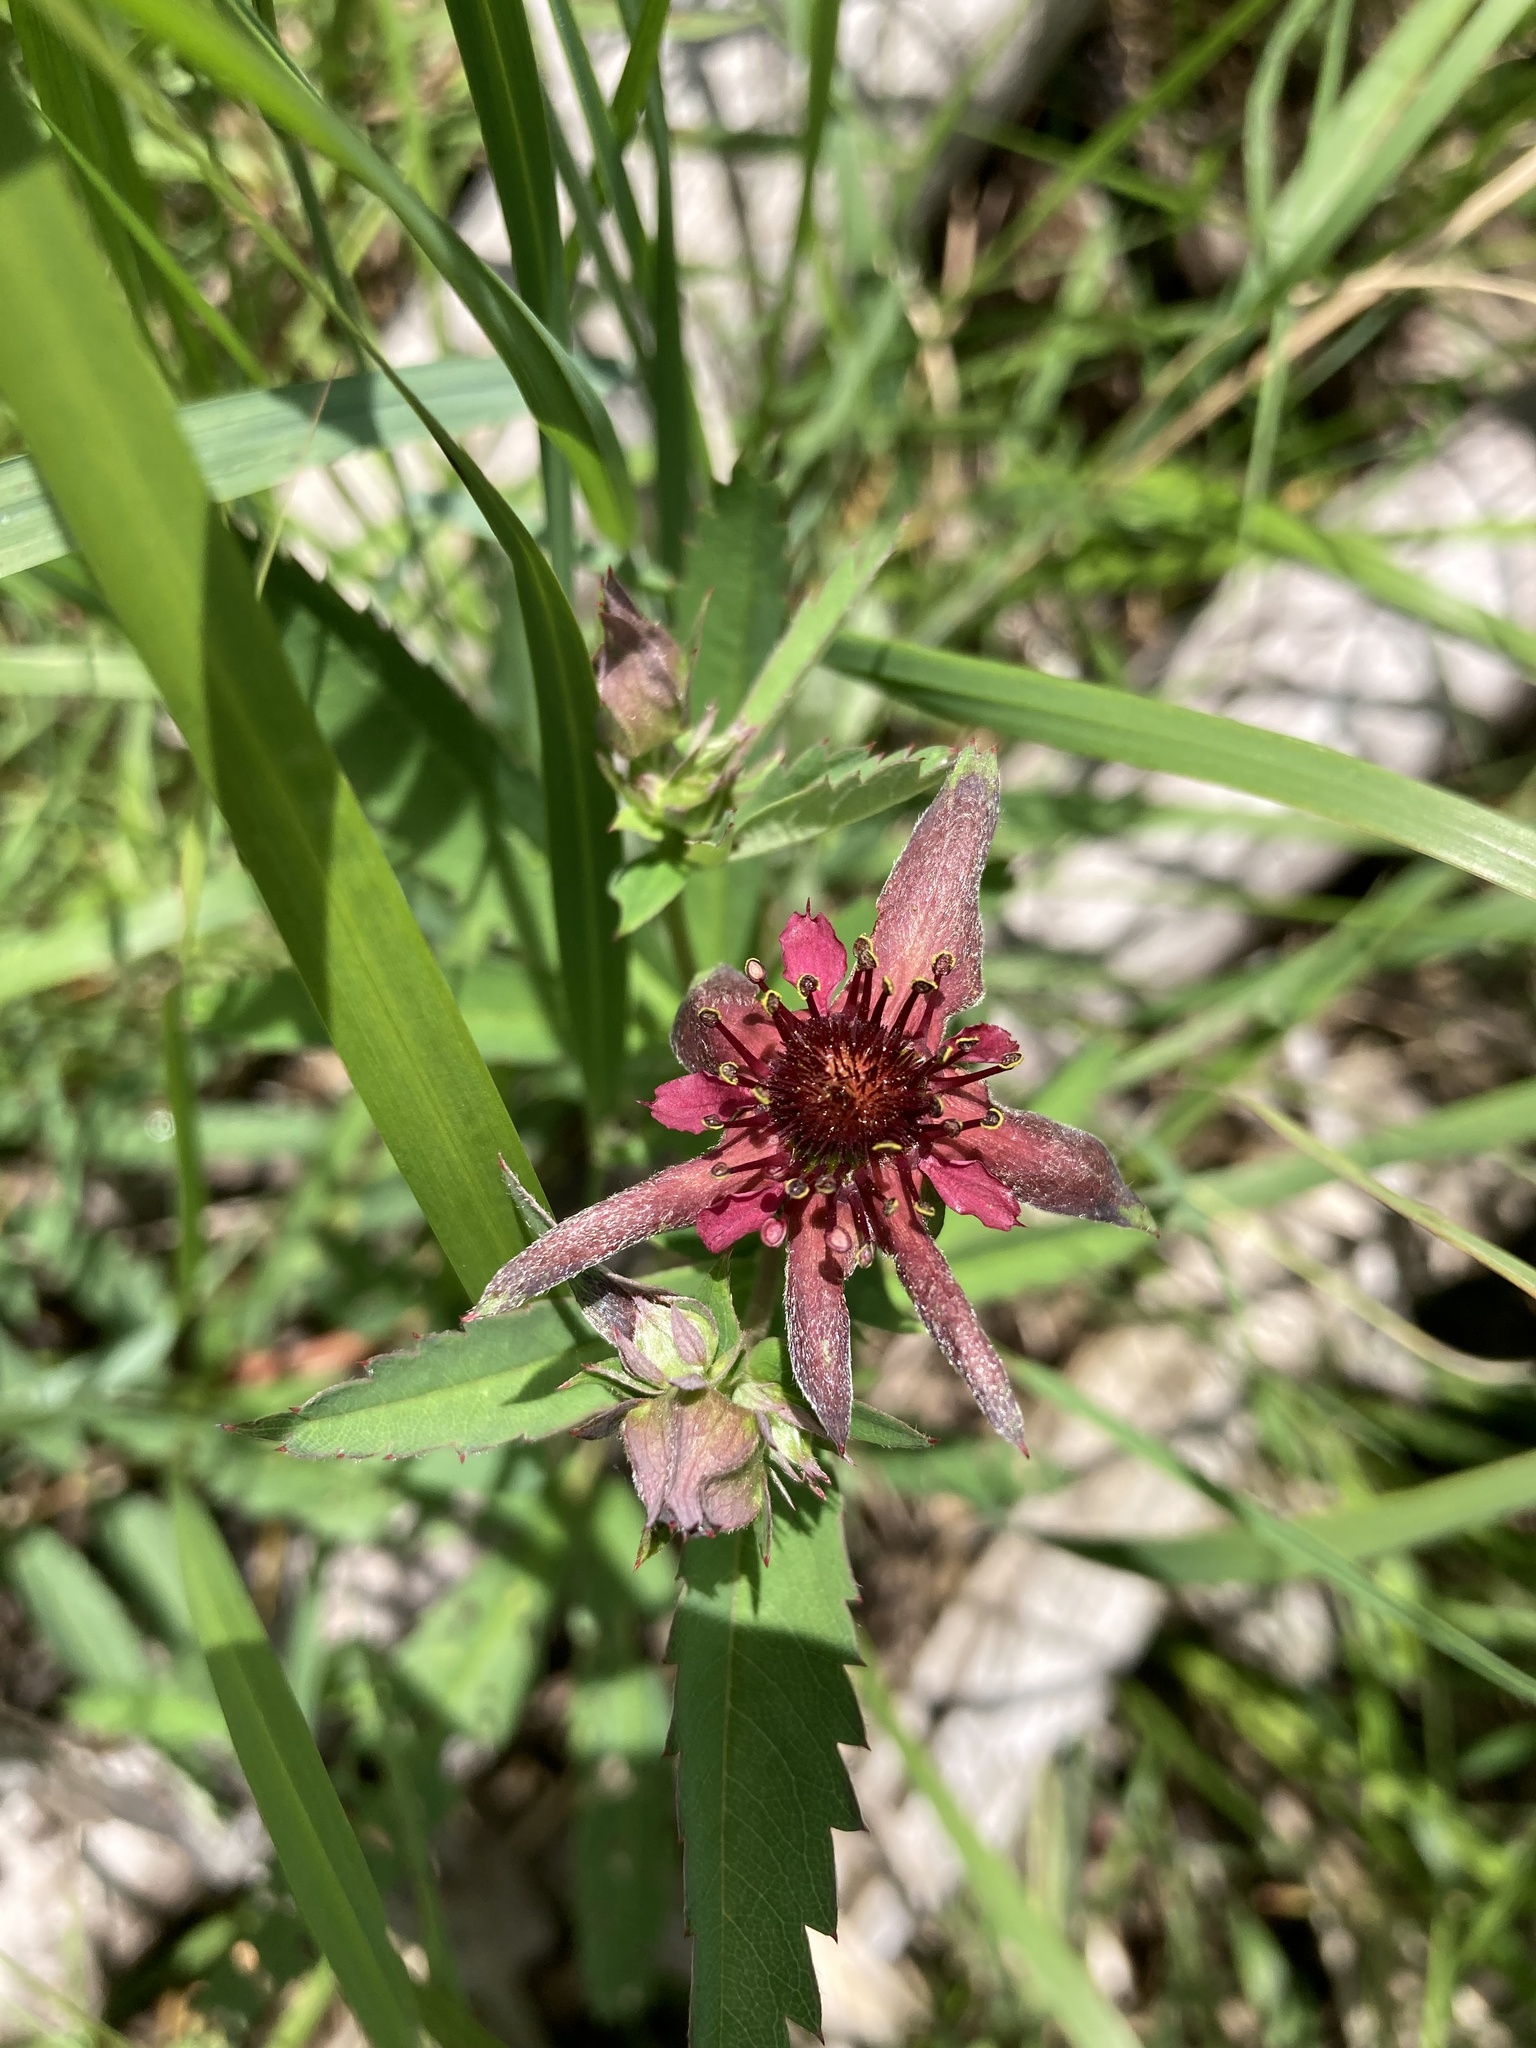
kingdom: Plantae
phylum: Tracheophyta
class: Magnoliopsida
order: Rosales
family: Rosaceae
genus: Comarum
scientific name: Comarum palustre
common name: Marsh cinquefoil
